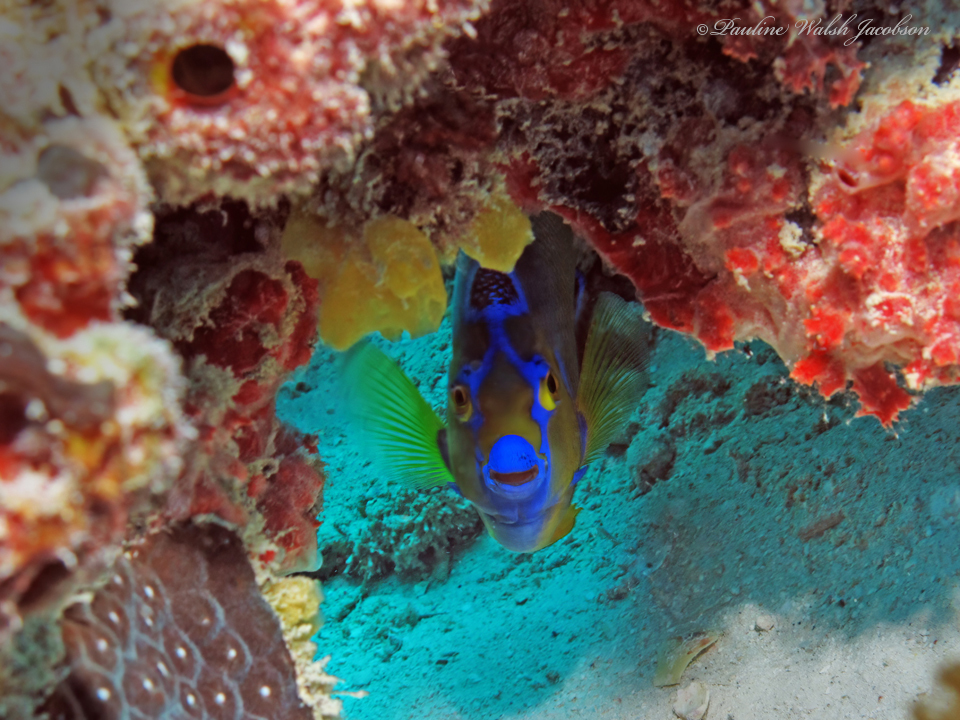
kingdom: Animalia
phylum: Chordata
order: Perciformes
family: Pomacanthidae
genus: Holacanthus
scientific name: Holacanthus ciliaris
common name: Queen angelfish
